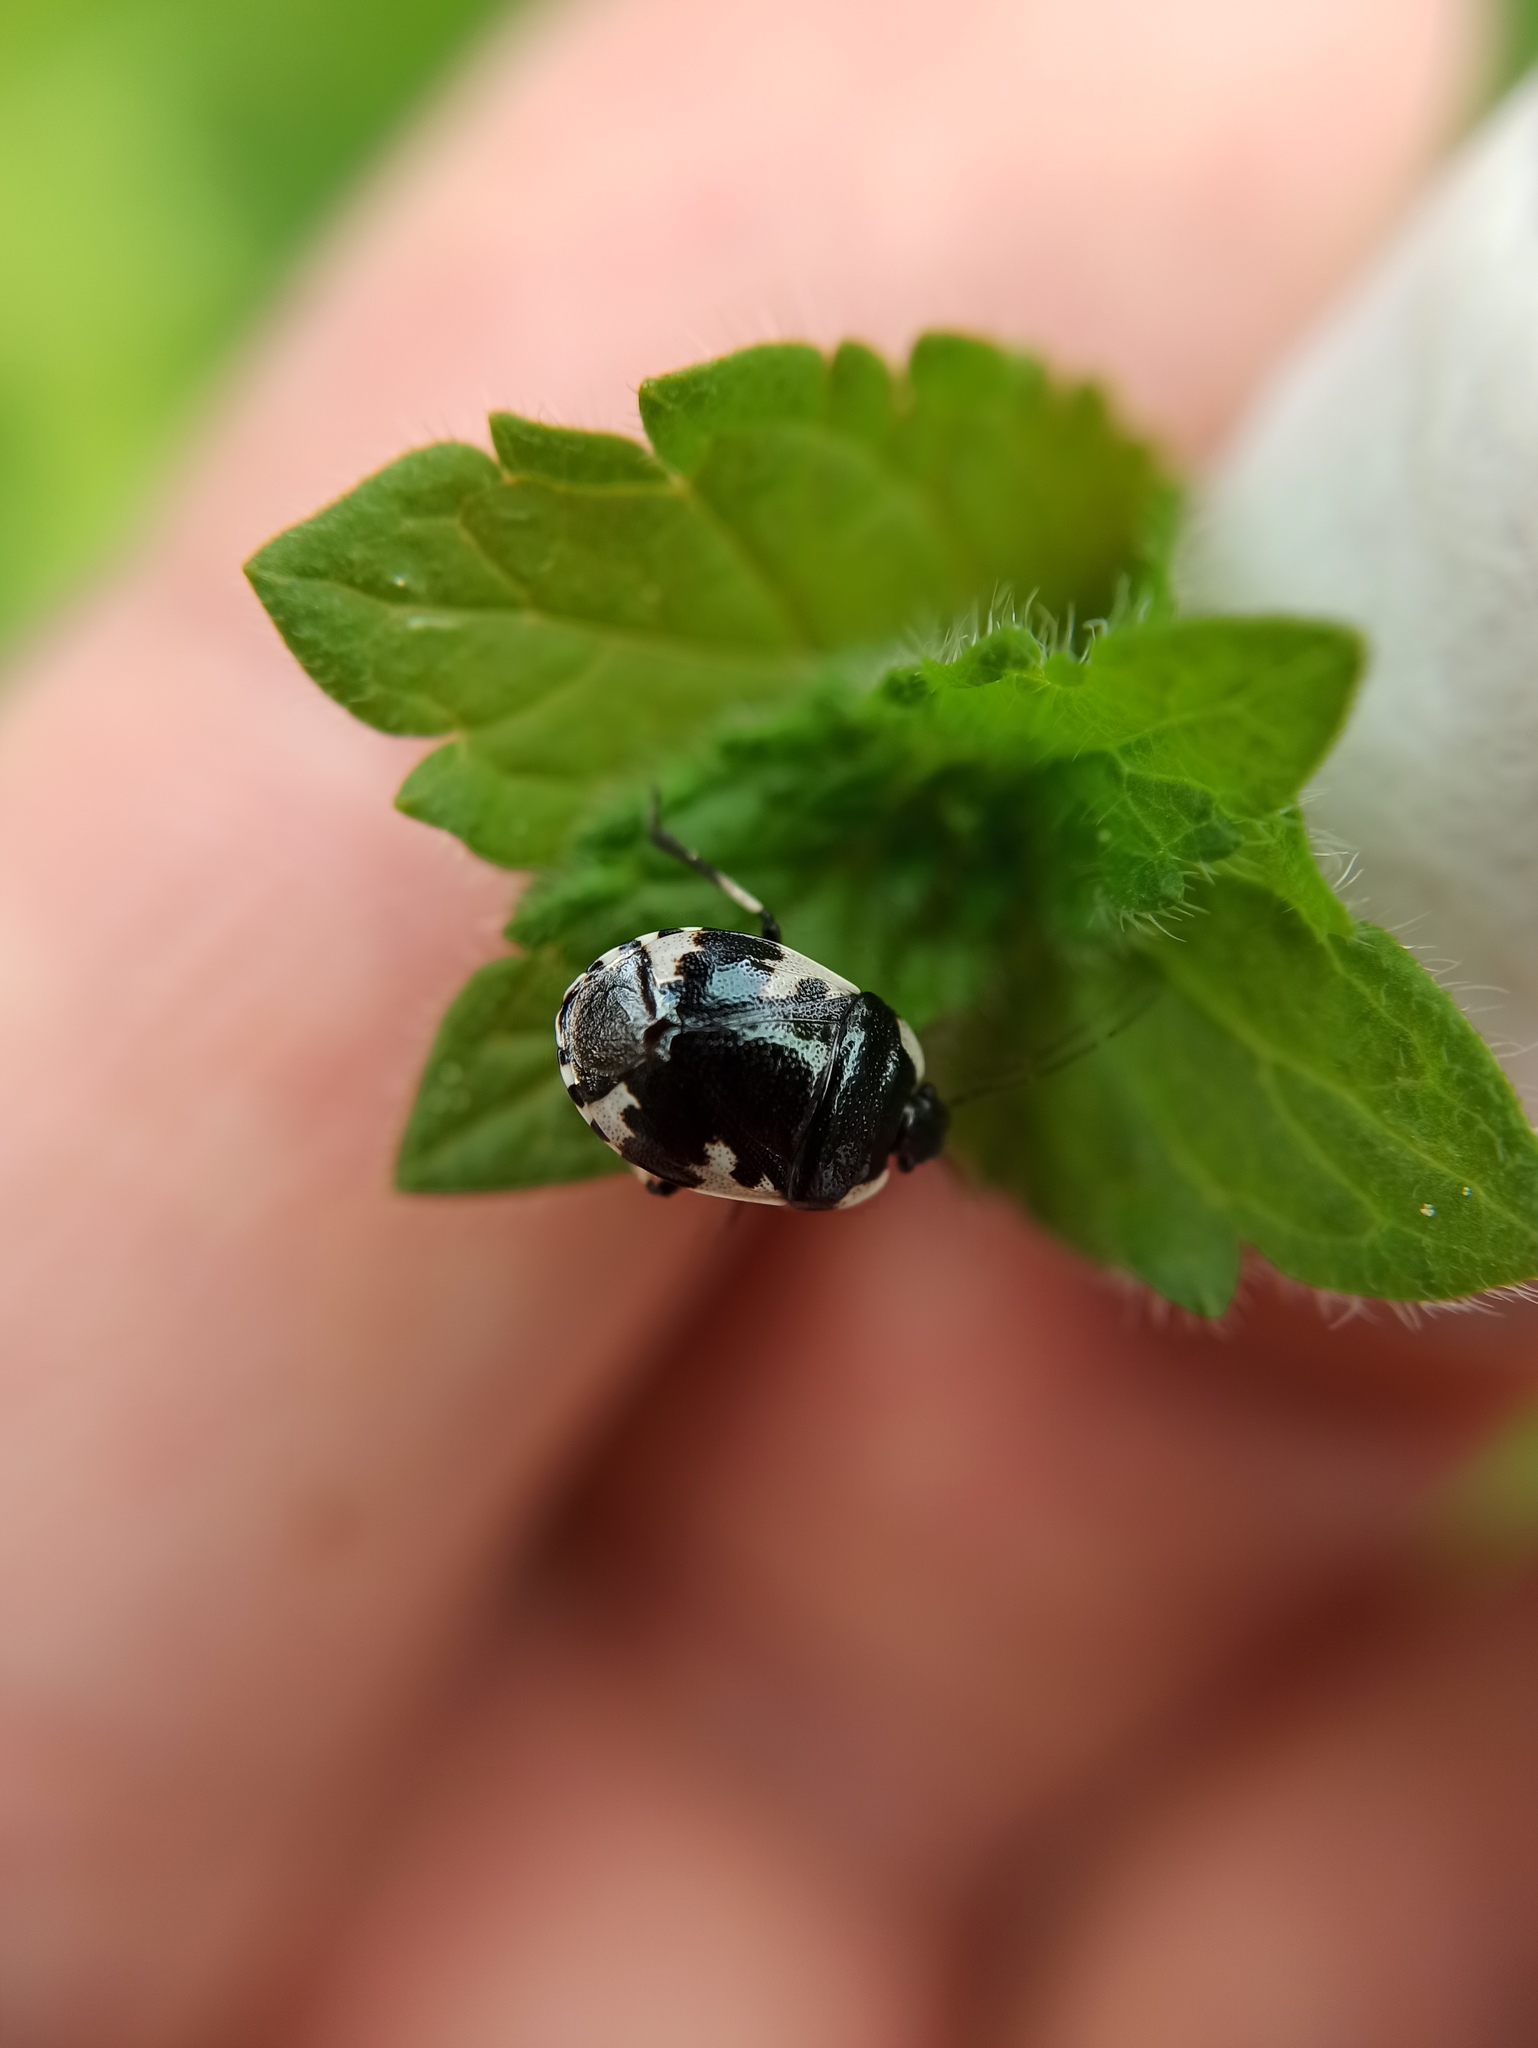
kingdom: Animalia
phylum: Arthropoda
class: Insecta
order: Hemiptera
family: Cydnidae
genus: Tritomegas
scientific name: Tritomegas rotundipennis
